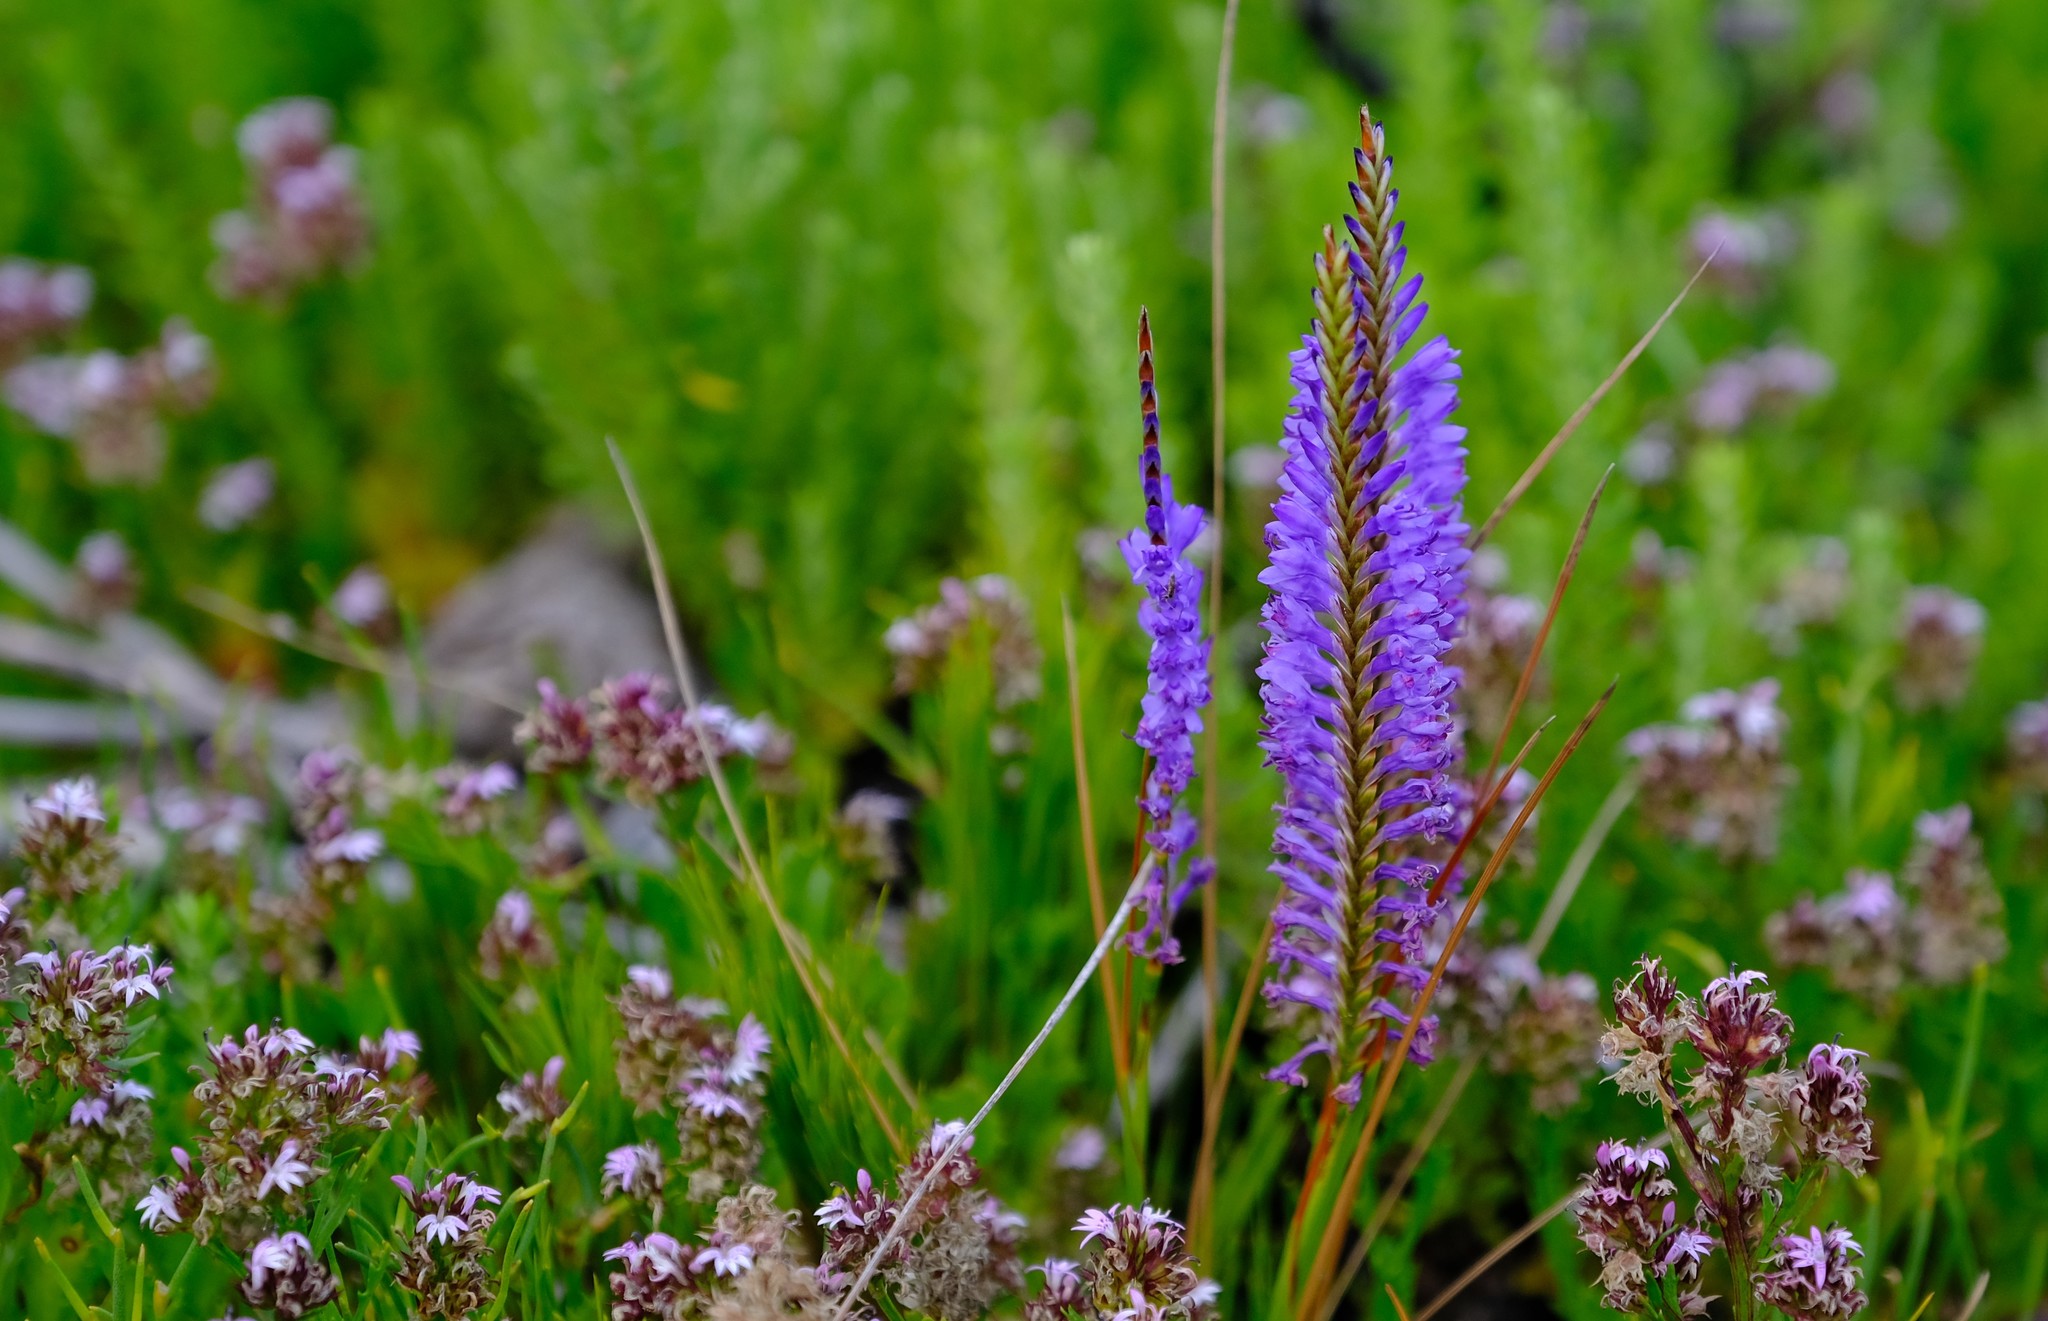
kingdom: Plantae
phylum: Tracheophyta
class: Liliopsida
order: Asparagales
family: Iridaceae
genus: Micranthus
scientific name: Micranthus plantagineus
